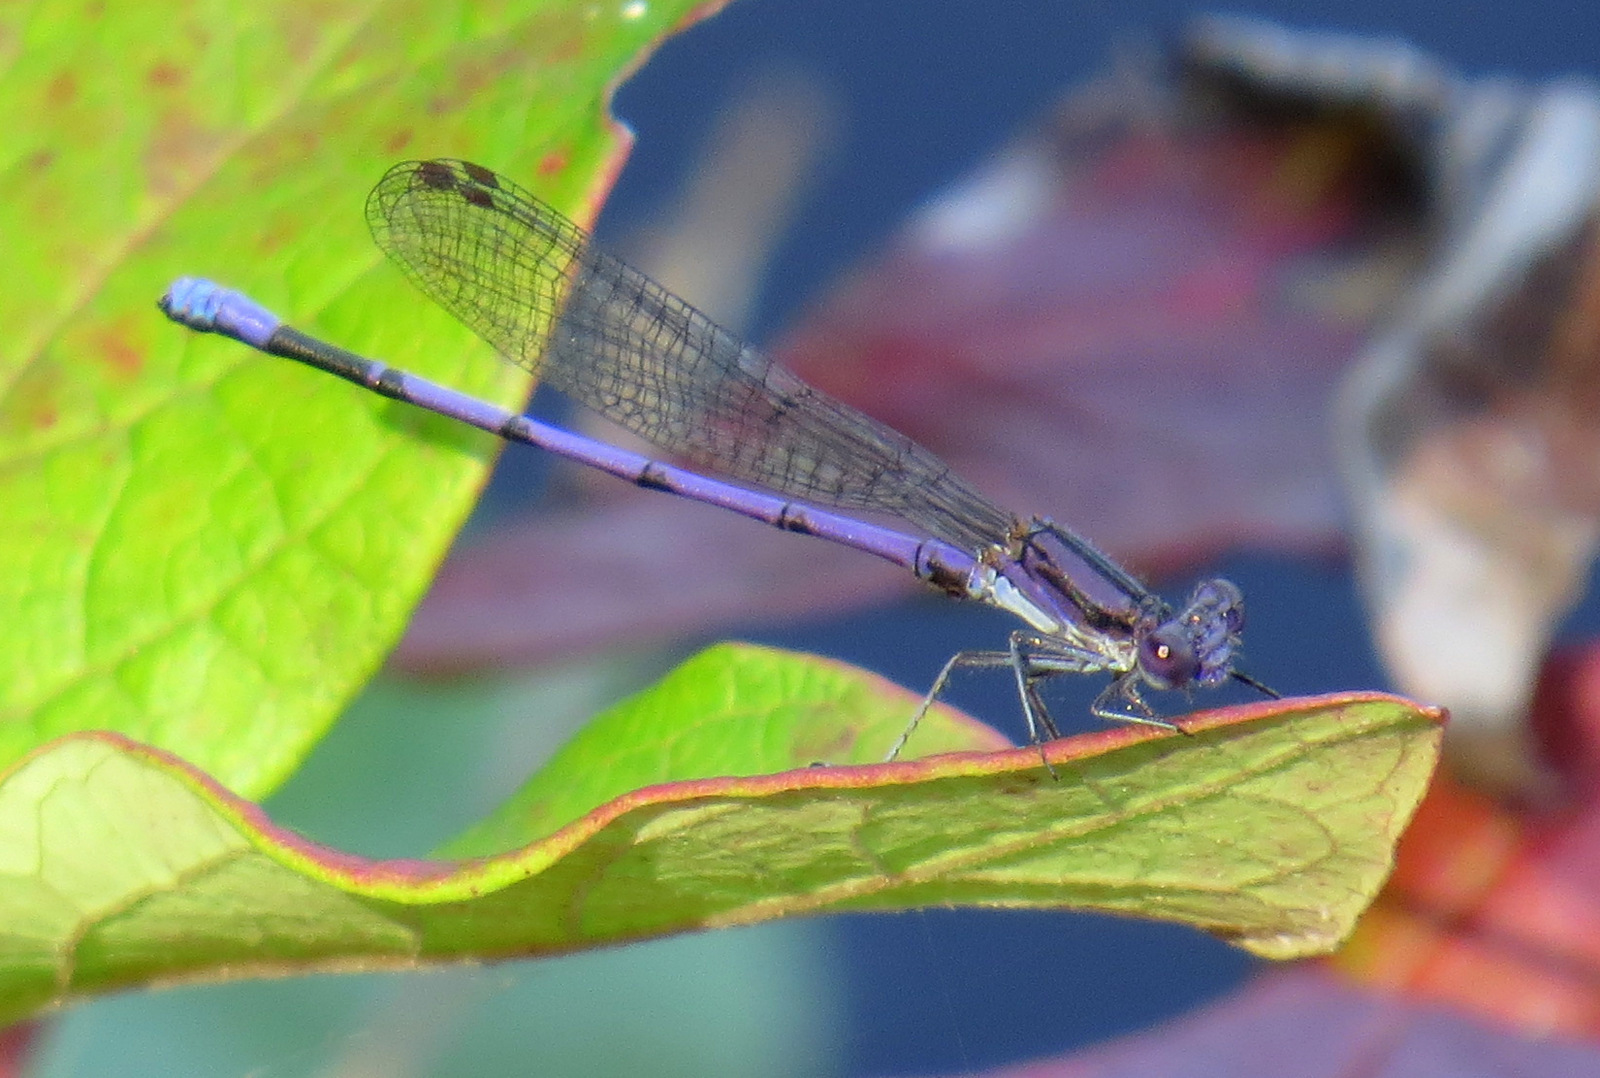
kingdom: Animalia
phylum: Arthropoda
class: Insecta
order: Odonata
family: Coenagrionidae
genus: Argia
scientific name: Argia fumipennis
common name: Variable dancer
